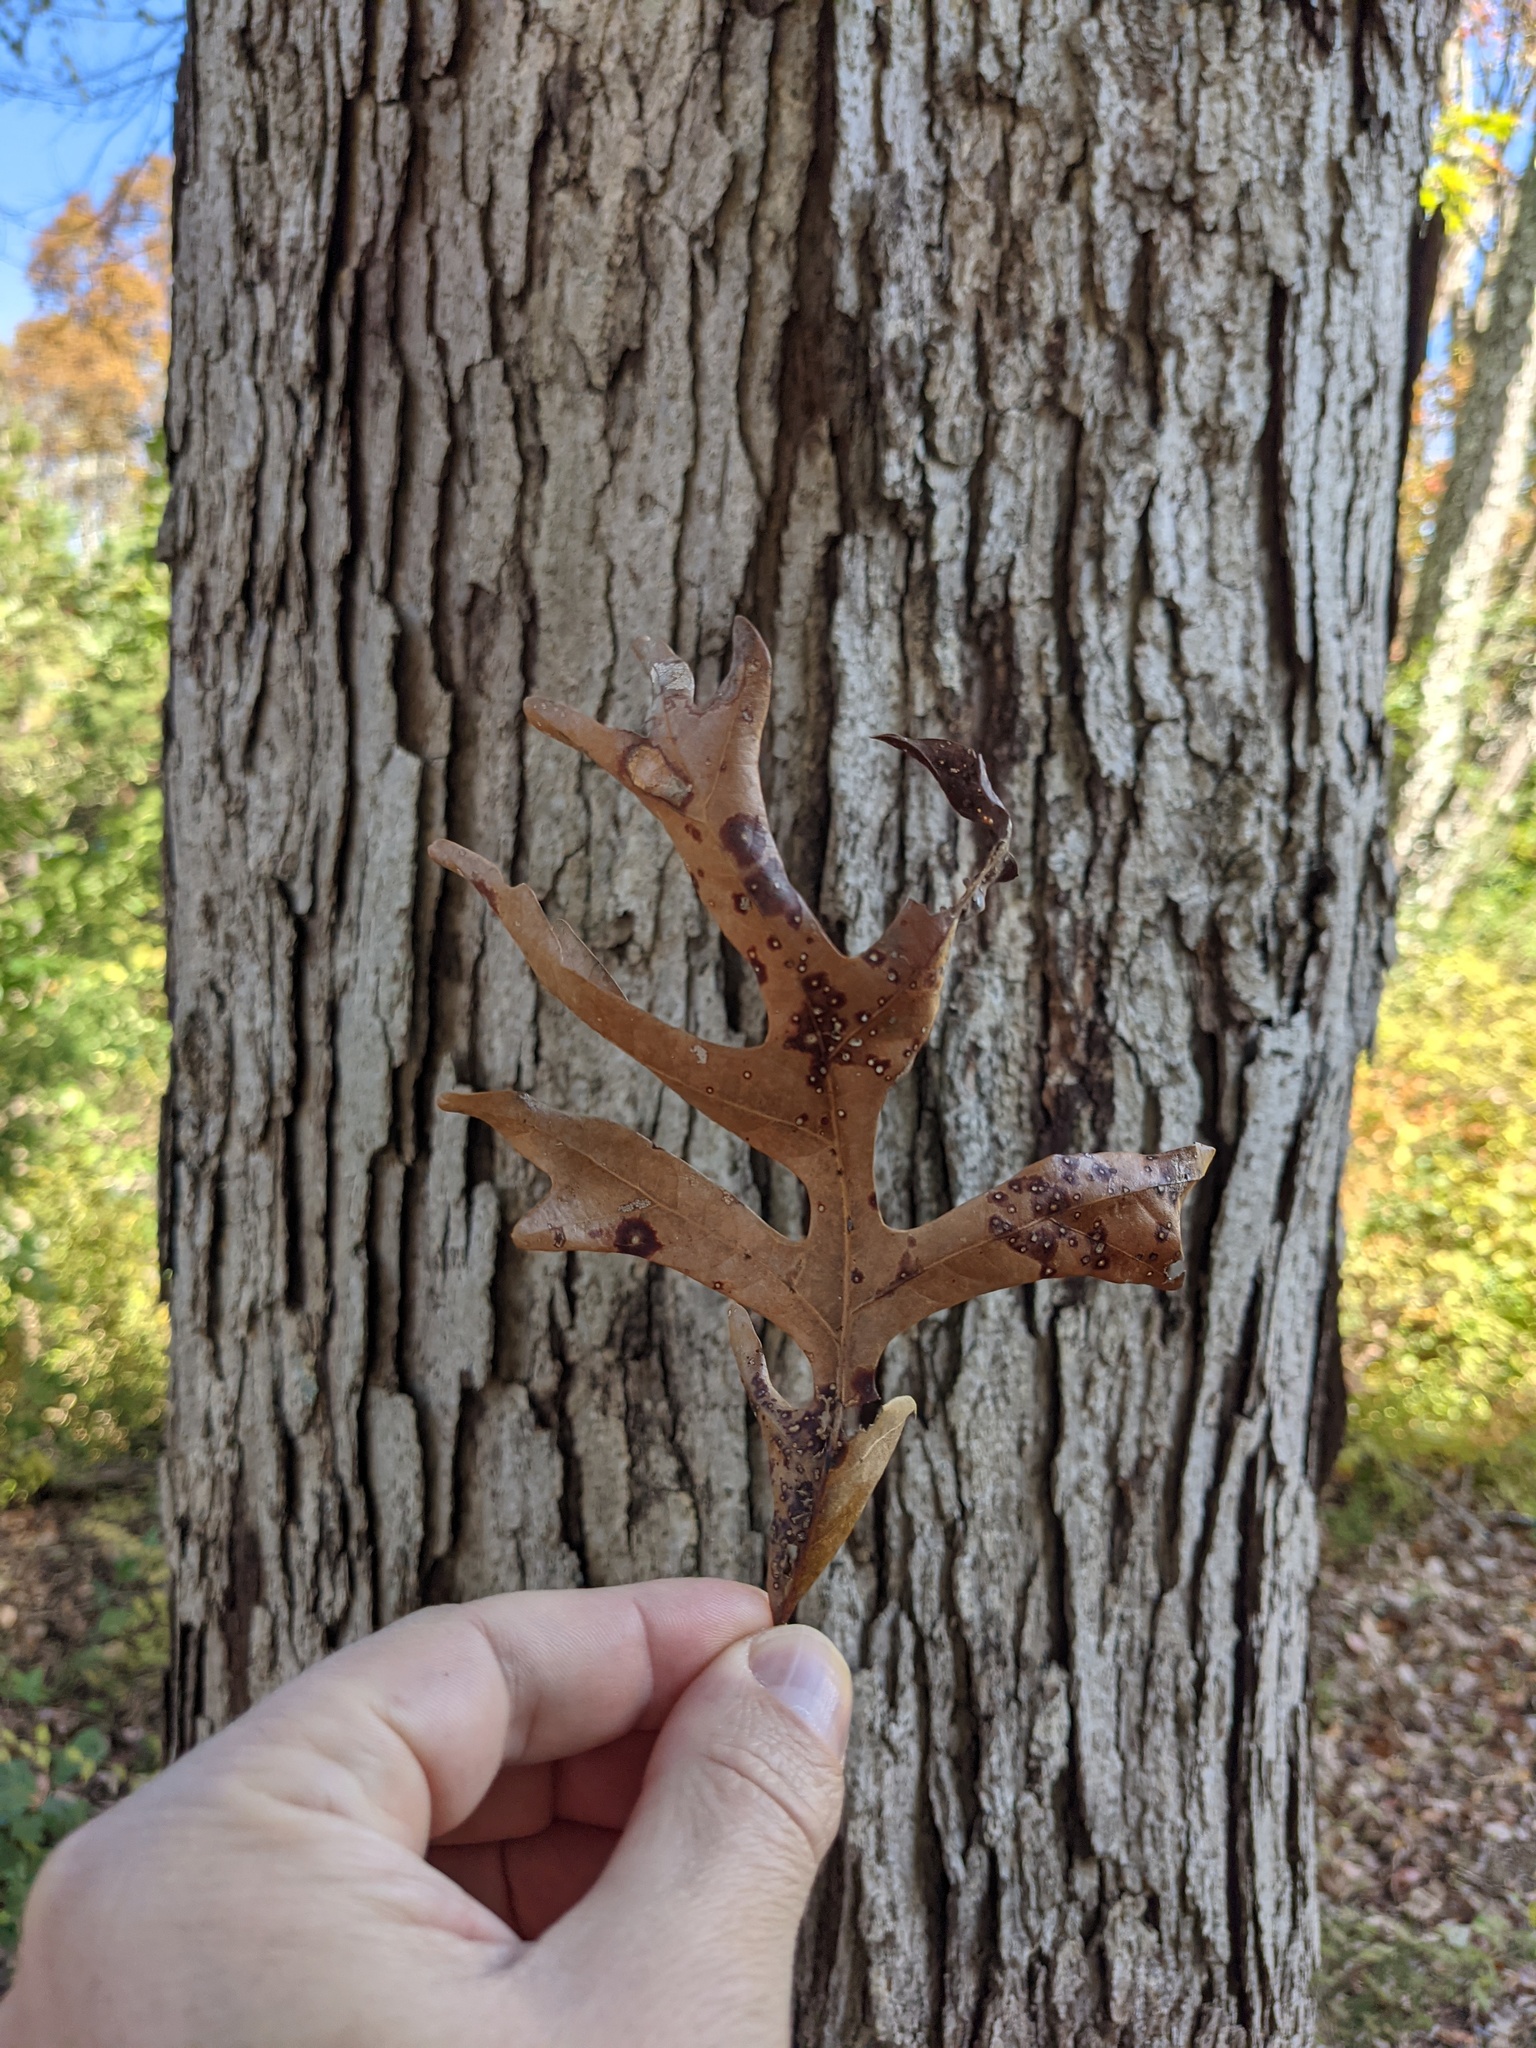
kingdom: Plantae
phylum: Tracheophyta
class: Magnoliopsida
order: Fagales
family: Fagaceae
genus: Quercus
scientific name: Quercus alba
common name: White oak
